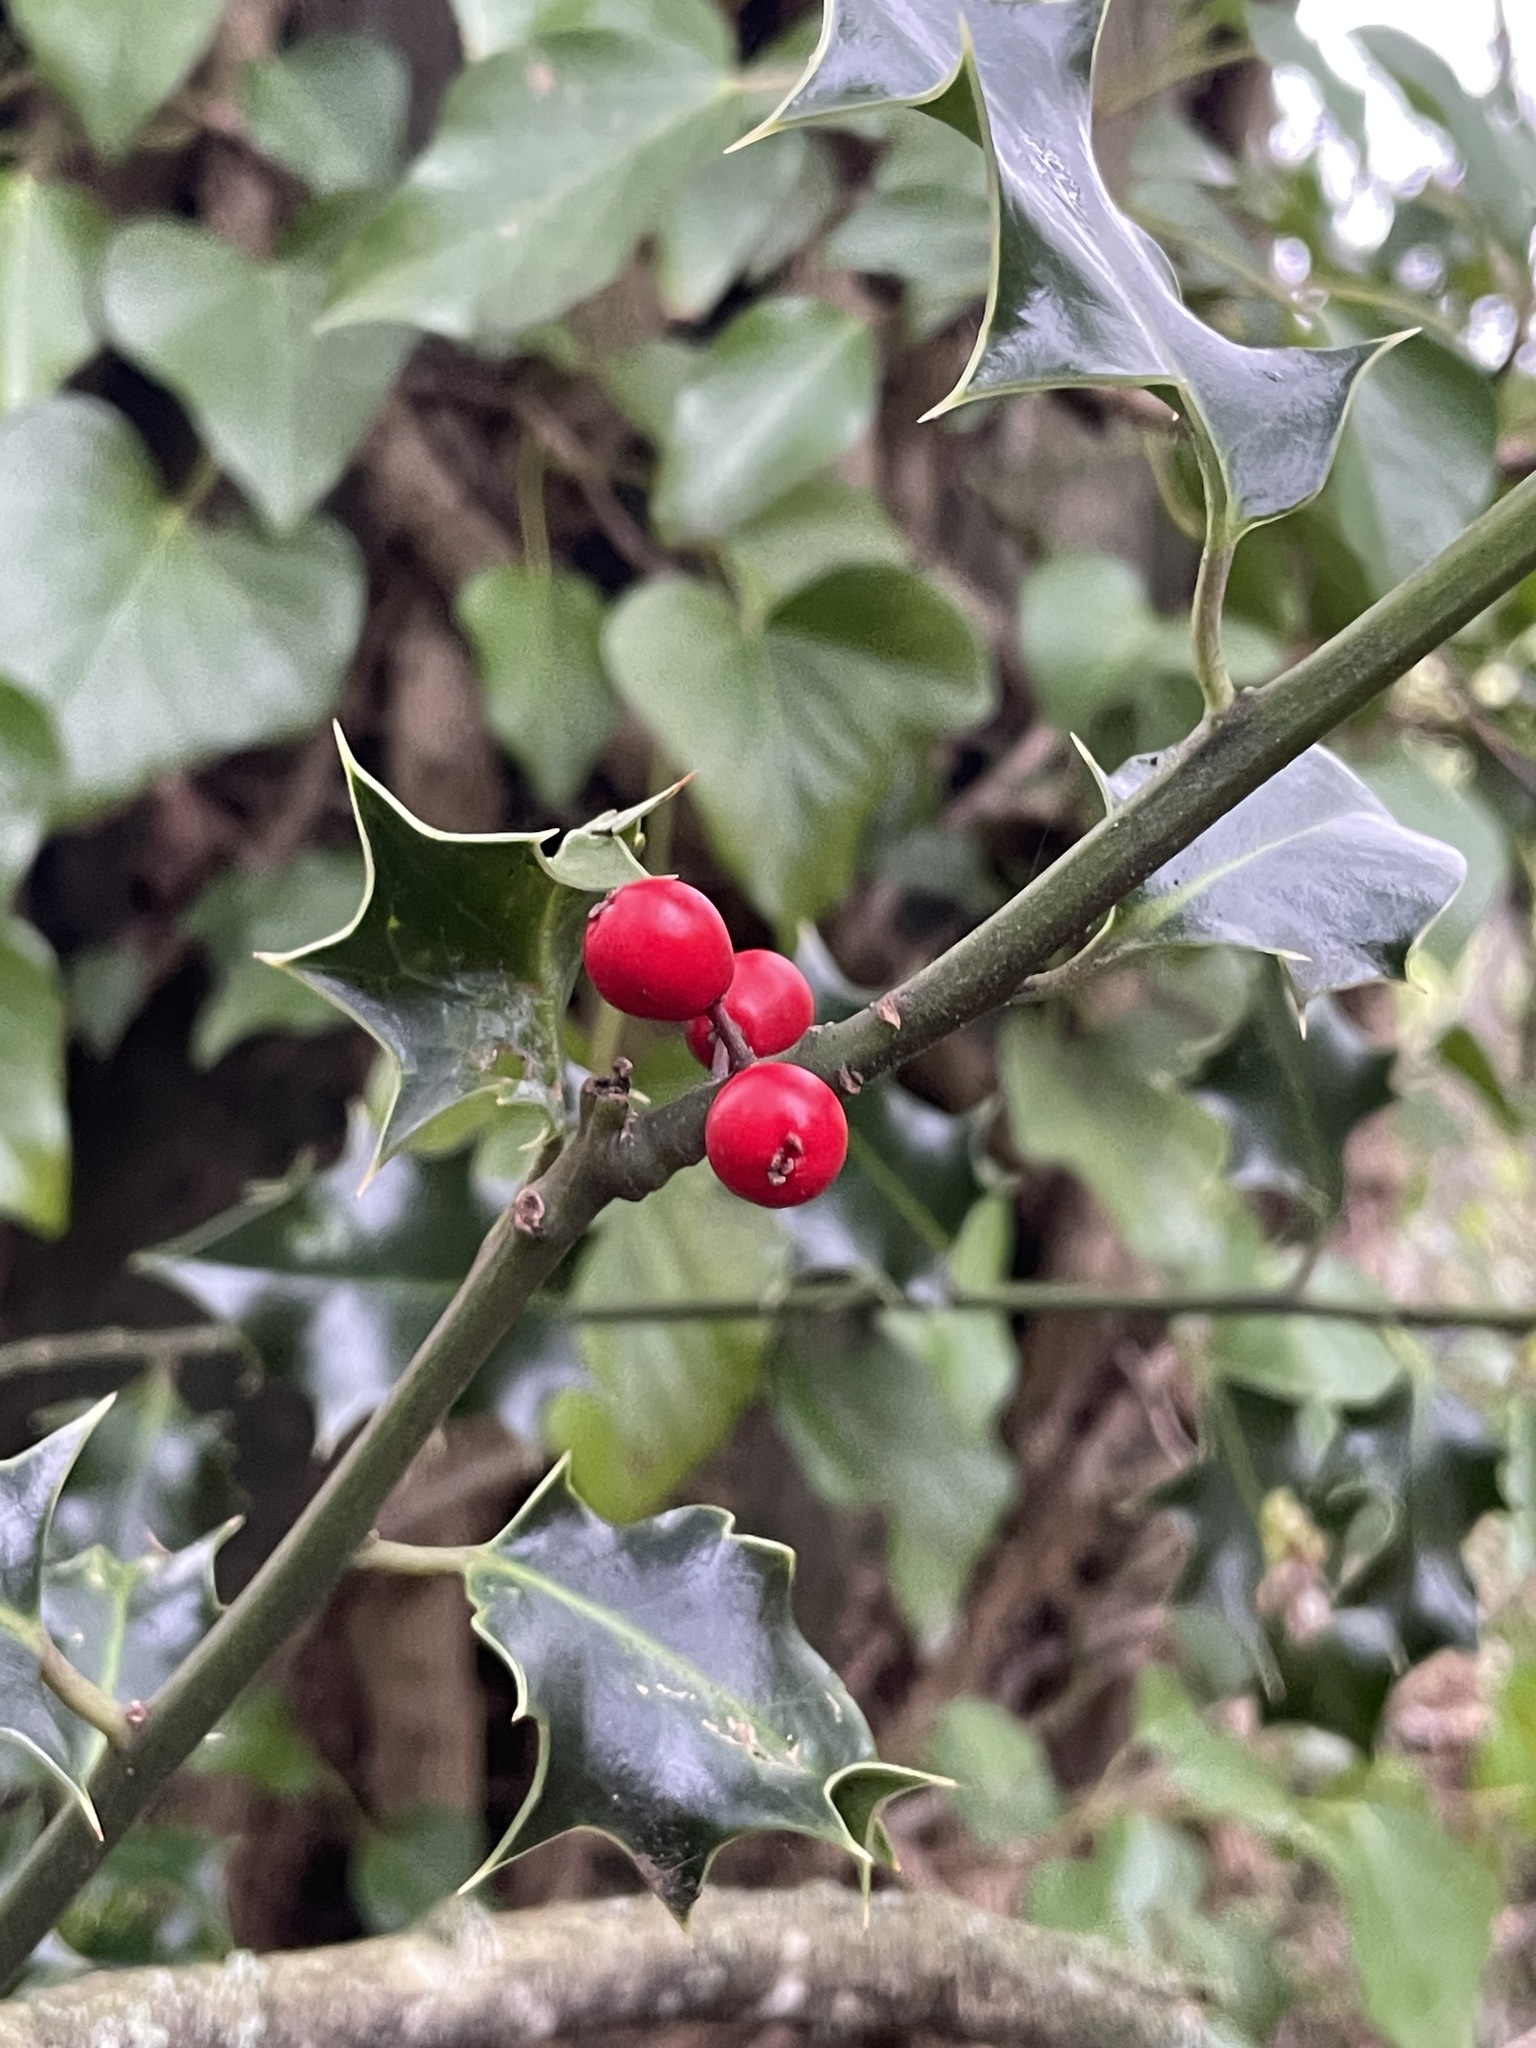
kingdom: Plantae
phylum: Tracheophyta
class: Magnoliopsida
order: Aquifoliales
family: Aquifoliaceae
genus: Ilex
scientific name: Ilex aquifolium
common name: English holly
